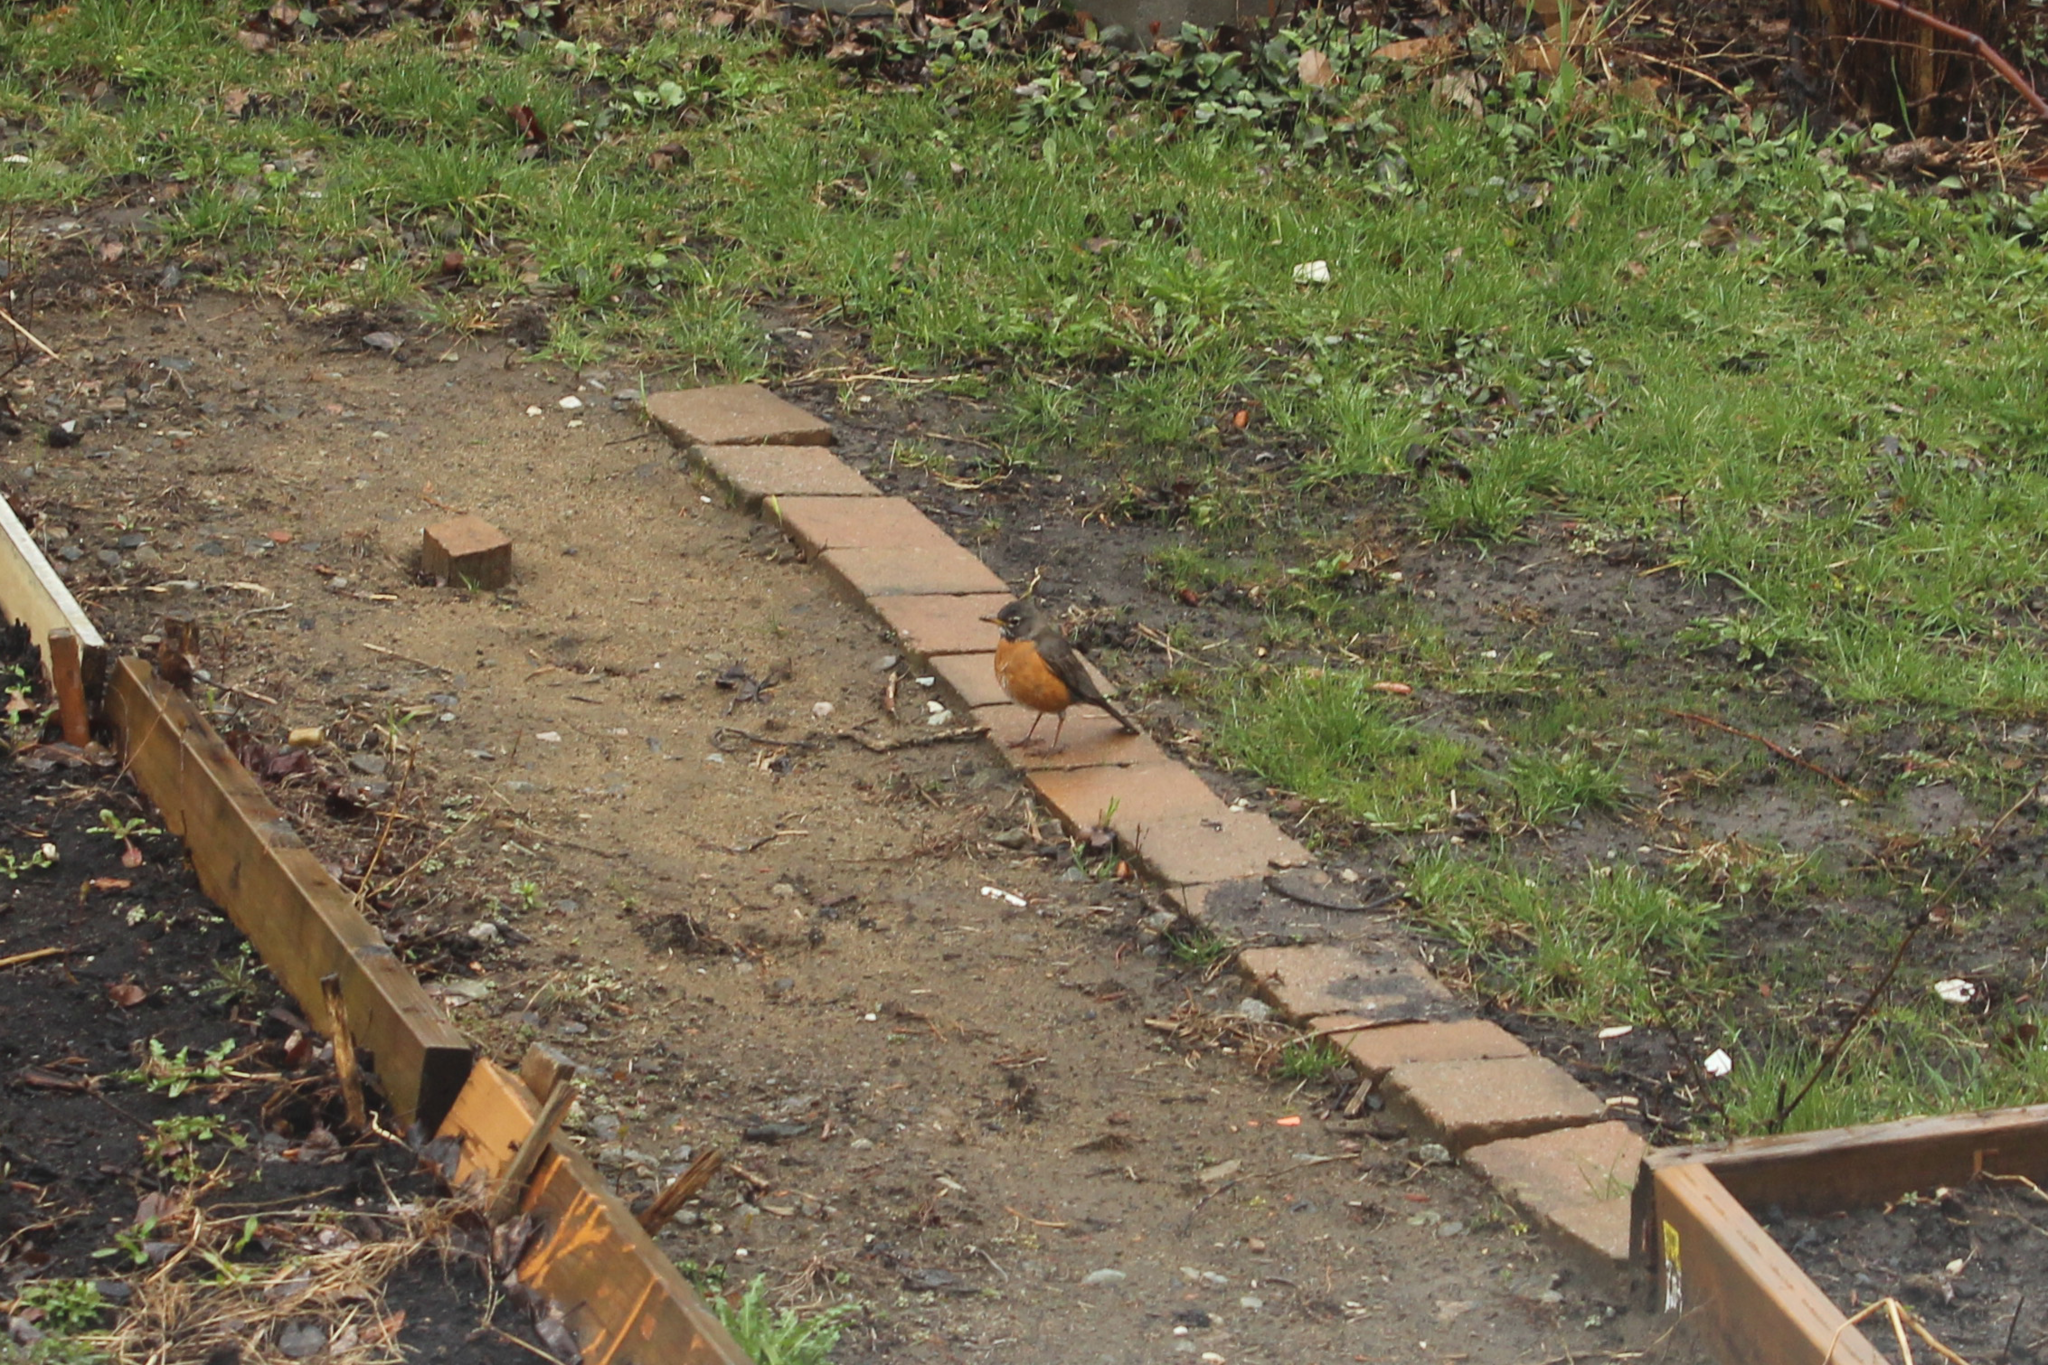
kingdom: Animalia
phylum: Chordata
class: Aves
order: Passeriformes
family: Turdidae
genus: Turdus
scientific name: Turdus migratorius
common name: American robin
